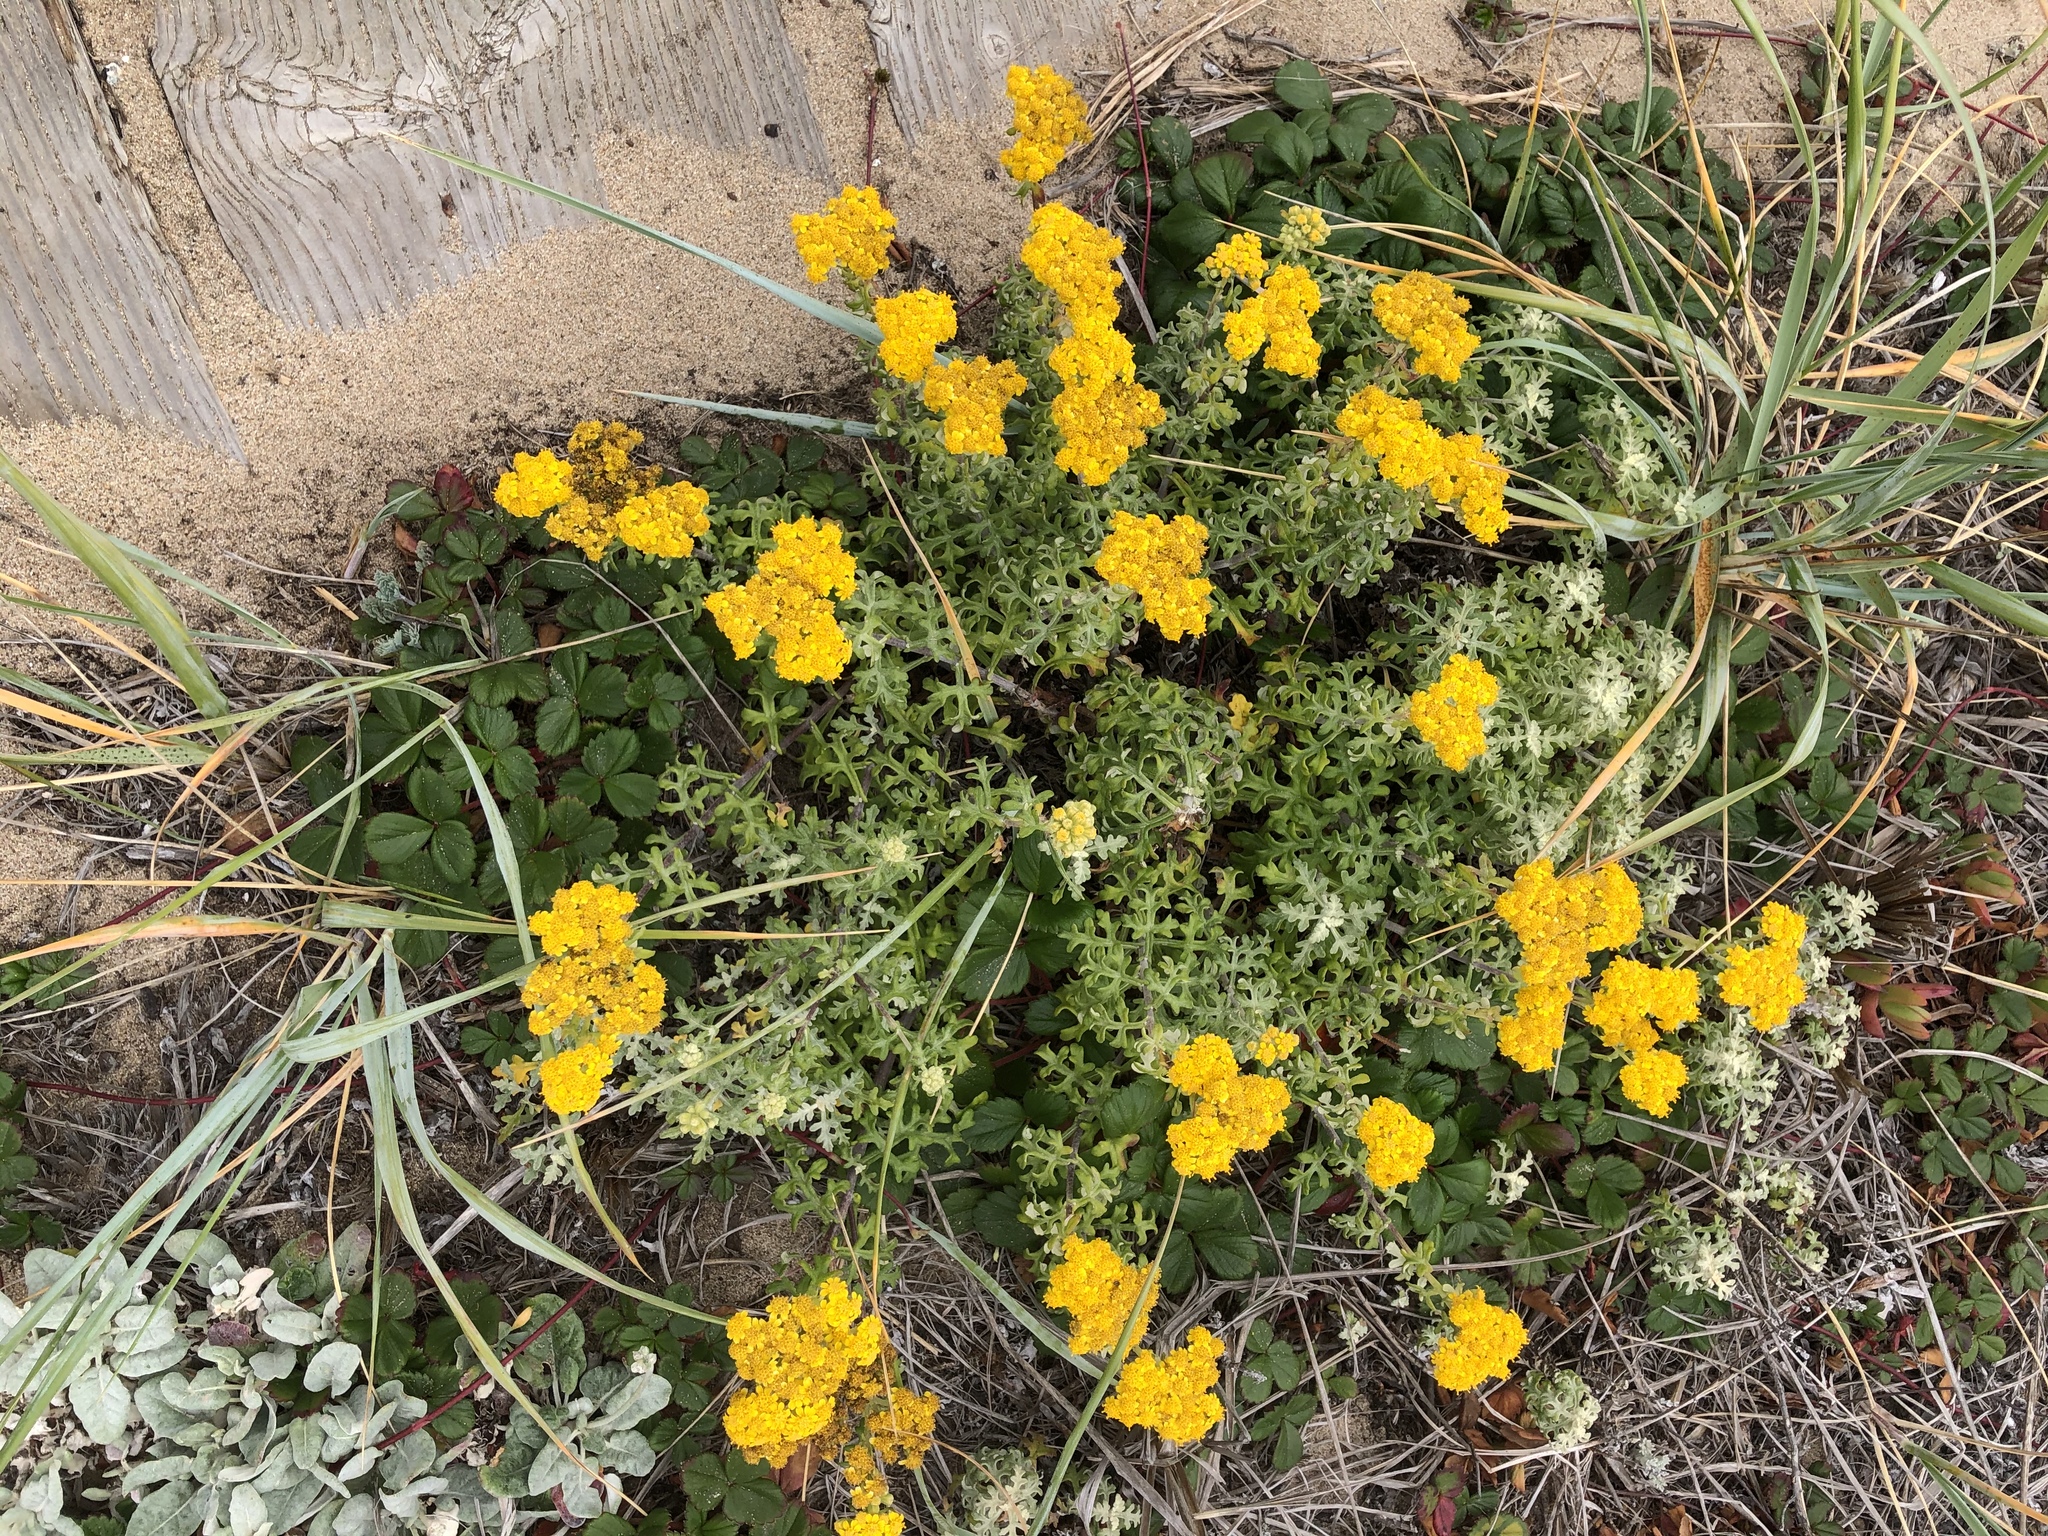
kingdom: Plantae
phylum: Tracheophyta
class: Magnoliopsida
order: Asterales
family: Asteraceae
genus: Eriophyllum
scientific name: Eriophyllum staechadifolium
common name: Lizardtail
